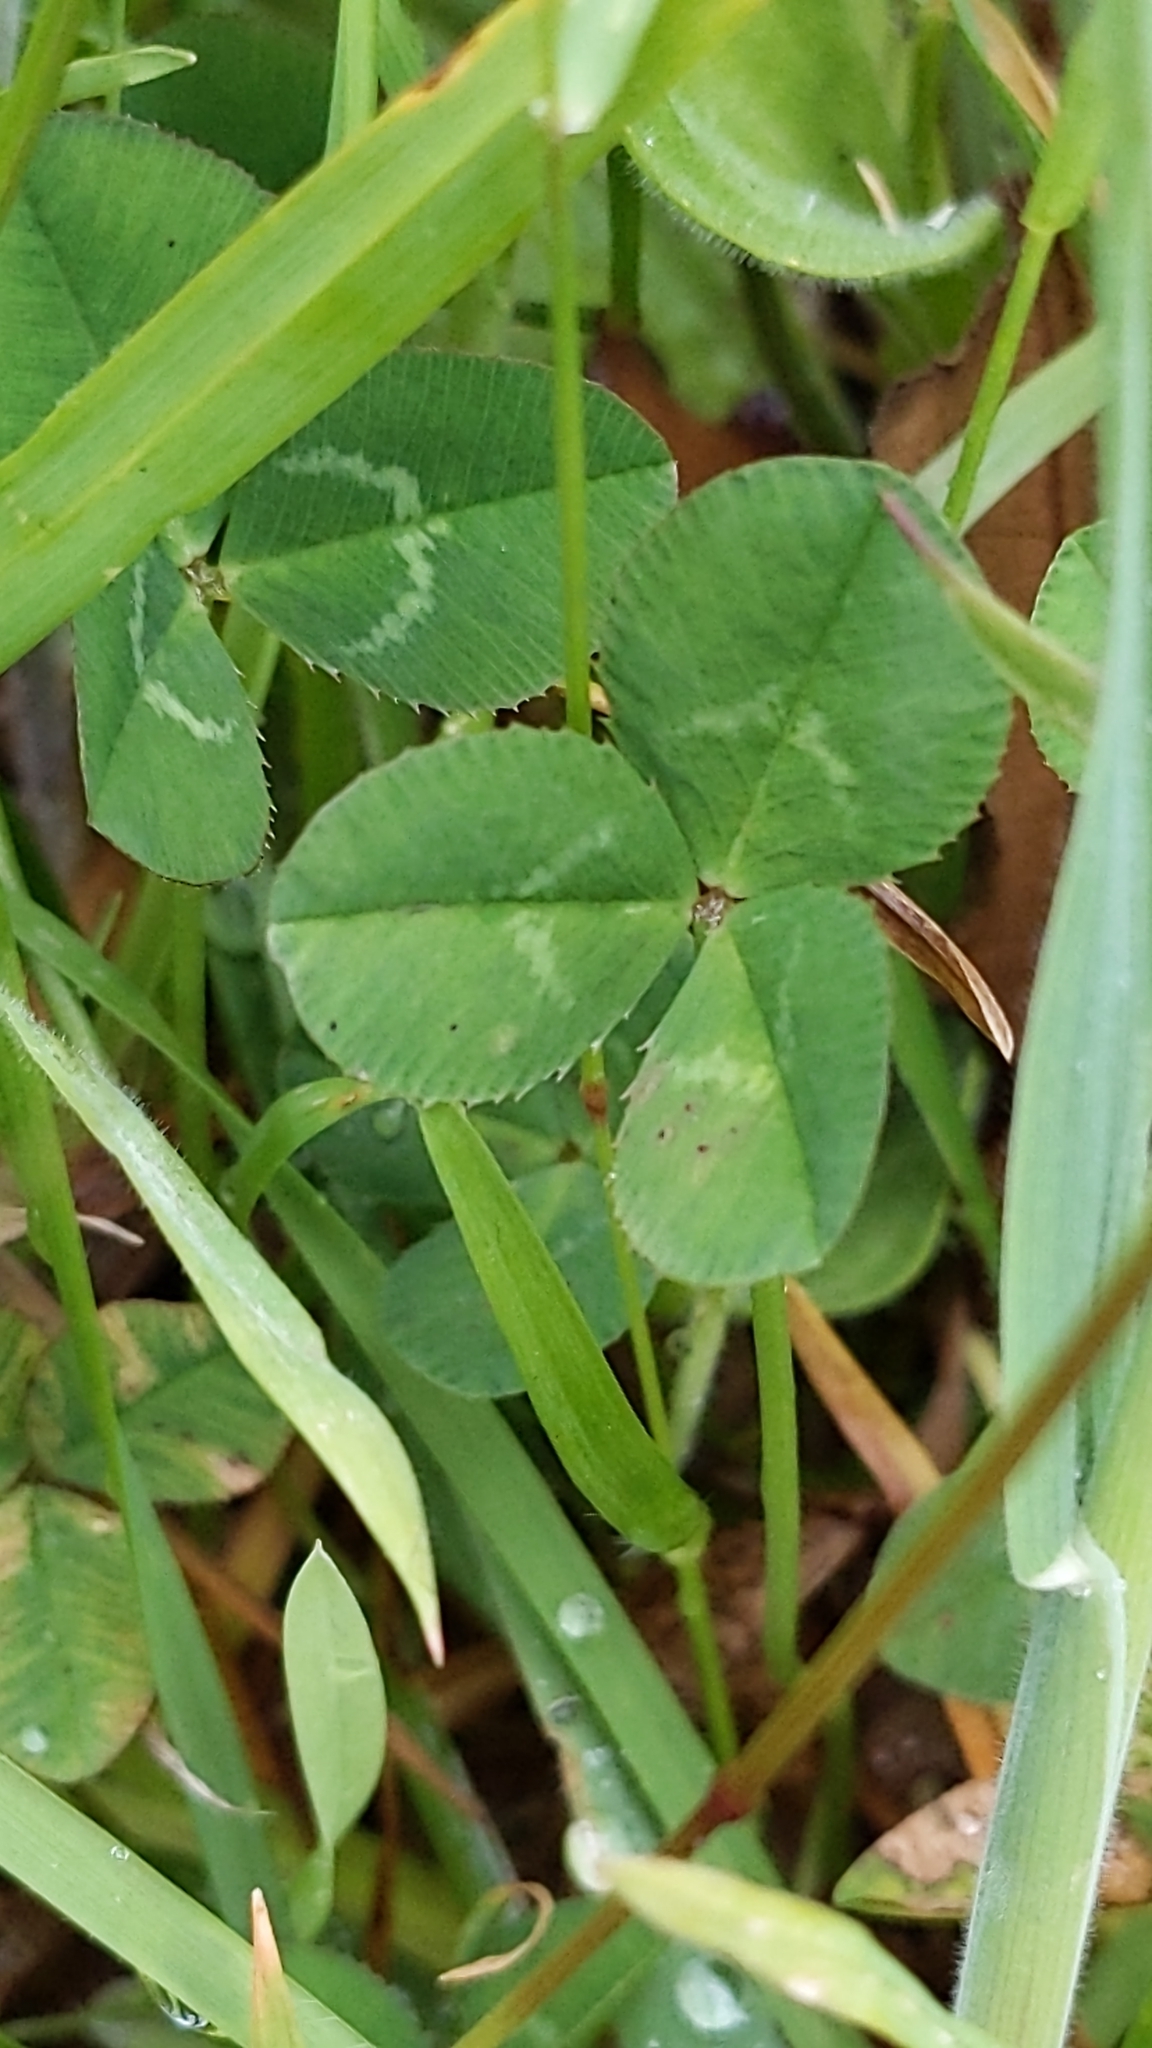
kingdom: Plantae
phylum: Tracheophyta
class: Magnoliopsida
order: Fabales
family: Fabaceae
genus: Trifolium
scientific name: Trifolium repens
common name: White clover
